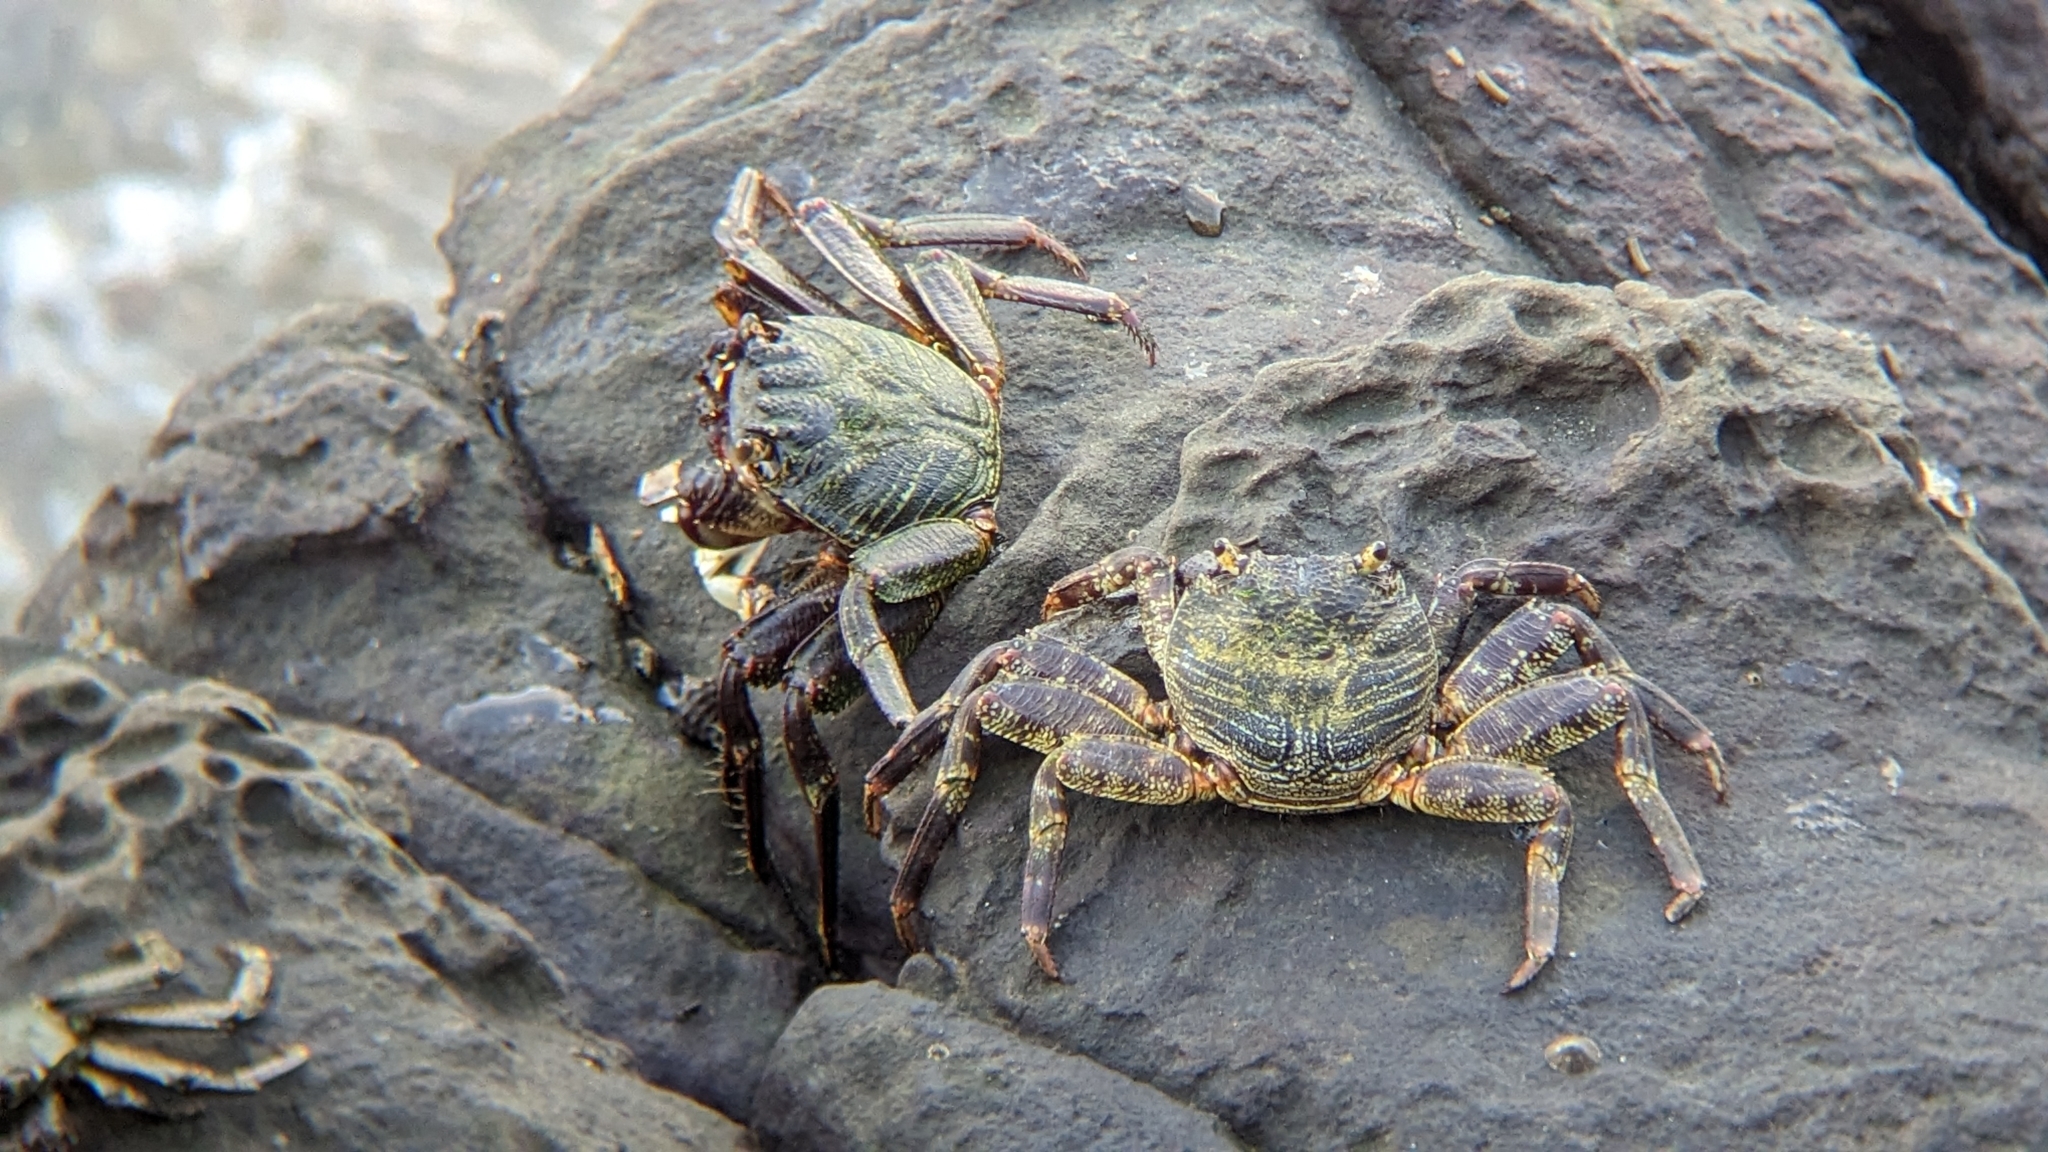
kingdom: Animalia
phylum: Arthropoda
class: Malacostraca
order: Decapoda
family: Grapsidae
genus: Grapsus
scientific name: Grapsus albolineatus
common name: Mottled lightfoot crab
